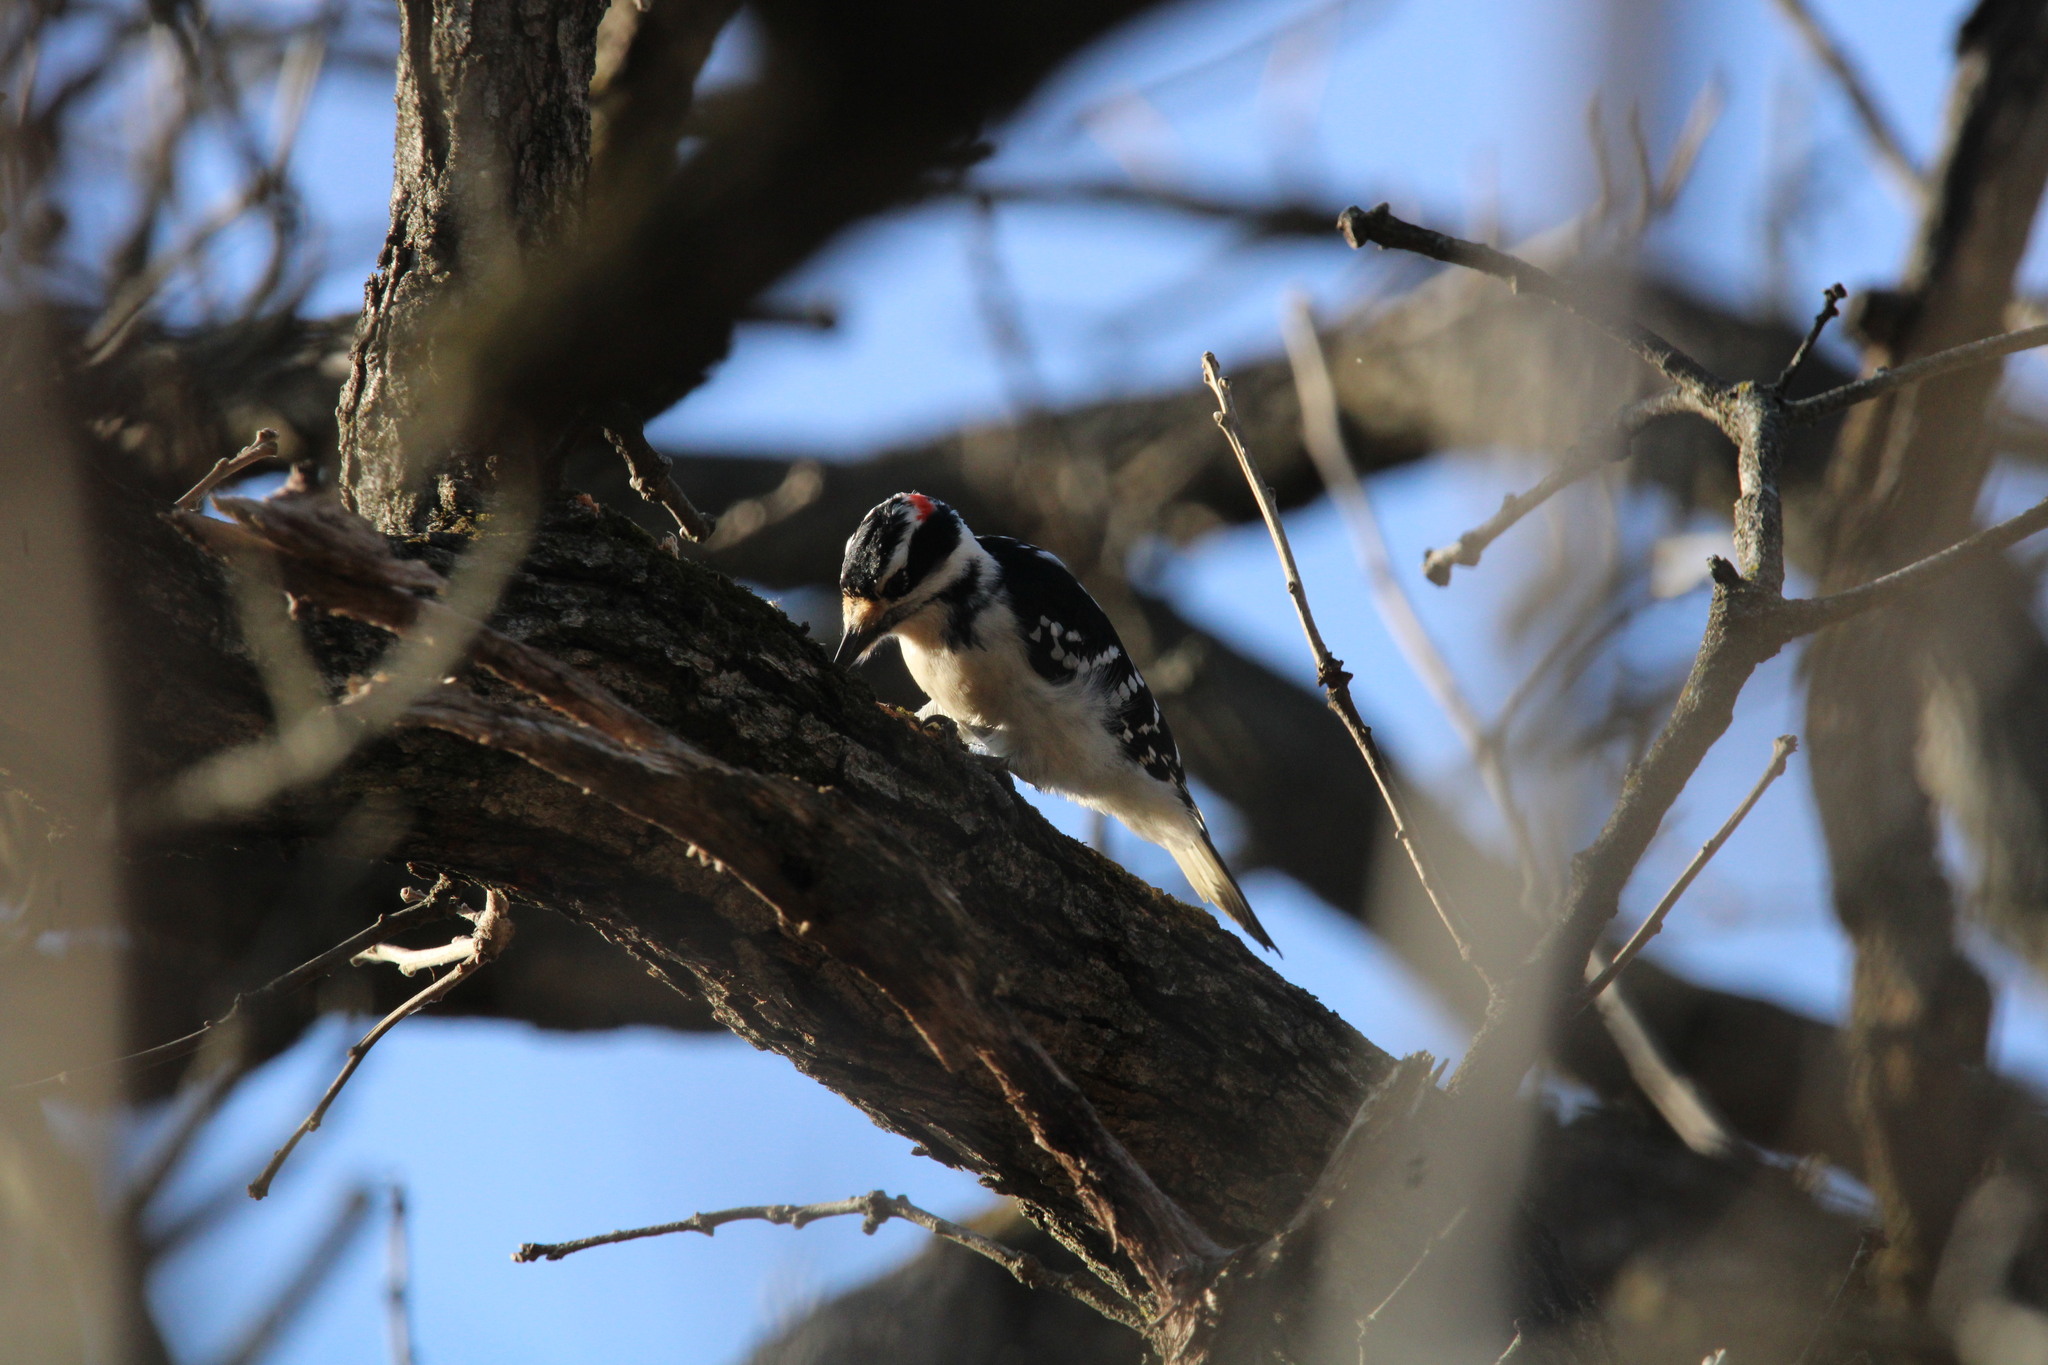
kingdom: Animalia
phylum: Chordata
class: Aves
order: Piciformes
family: Picidae
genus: Leuconotopicus
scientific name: Leuconotopicus villosus
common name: Hairy woodpecker
